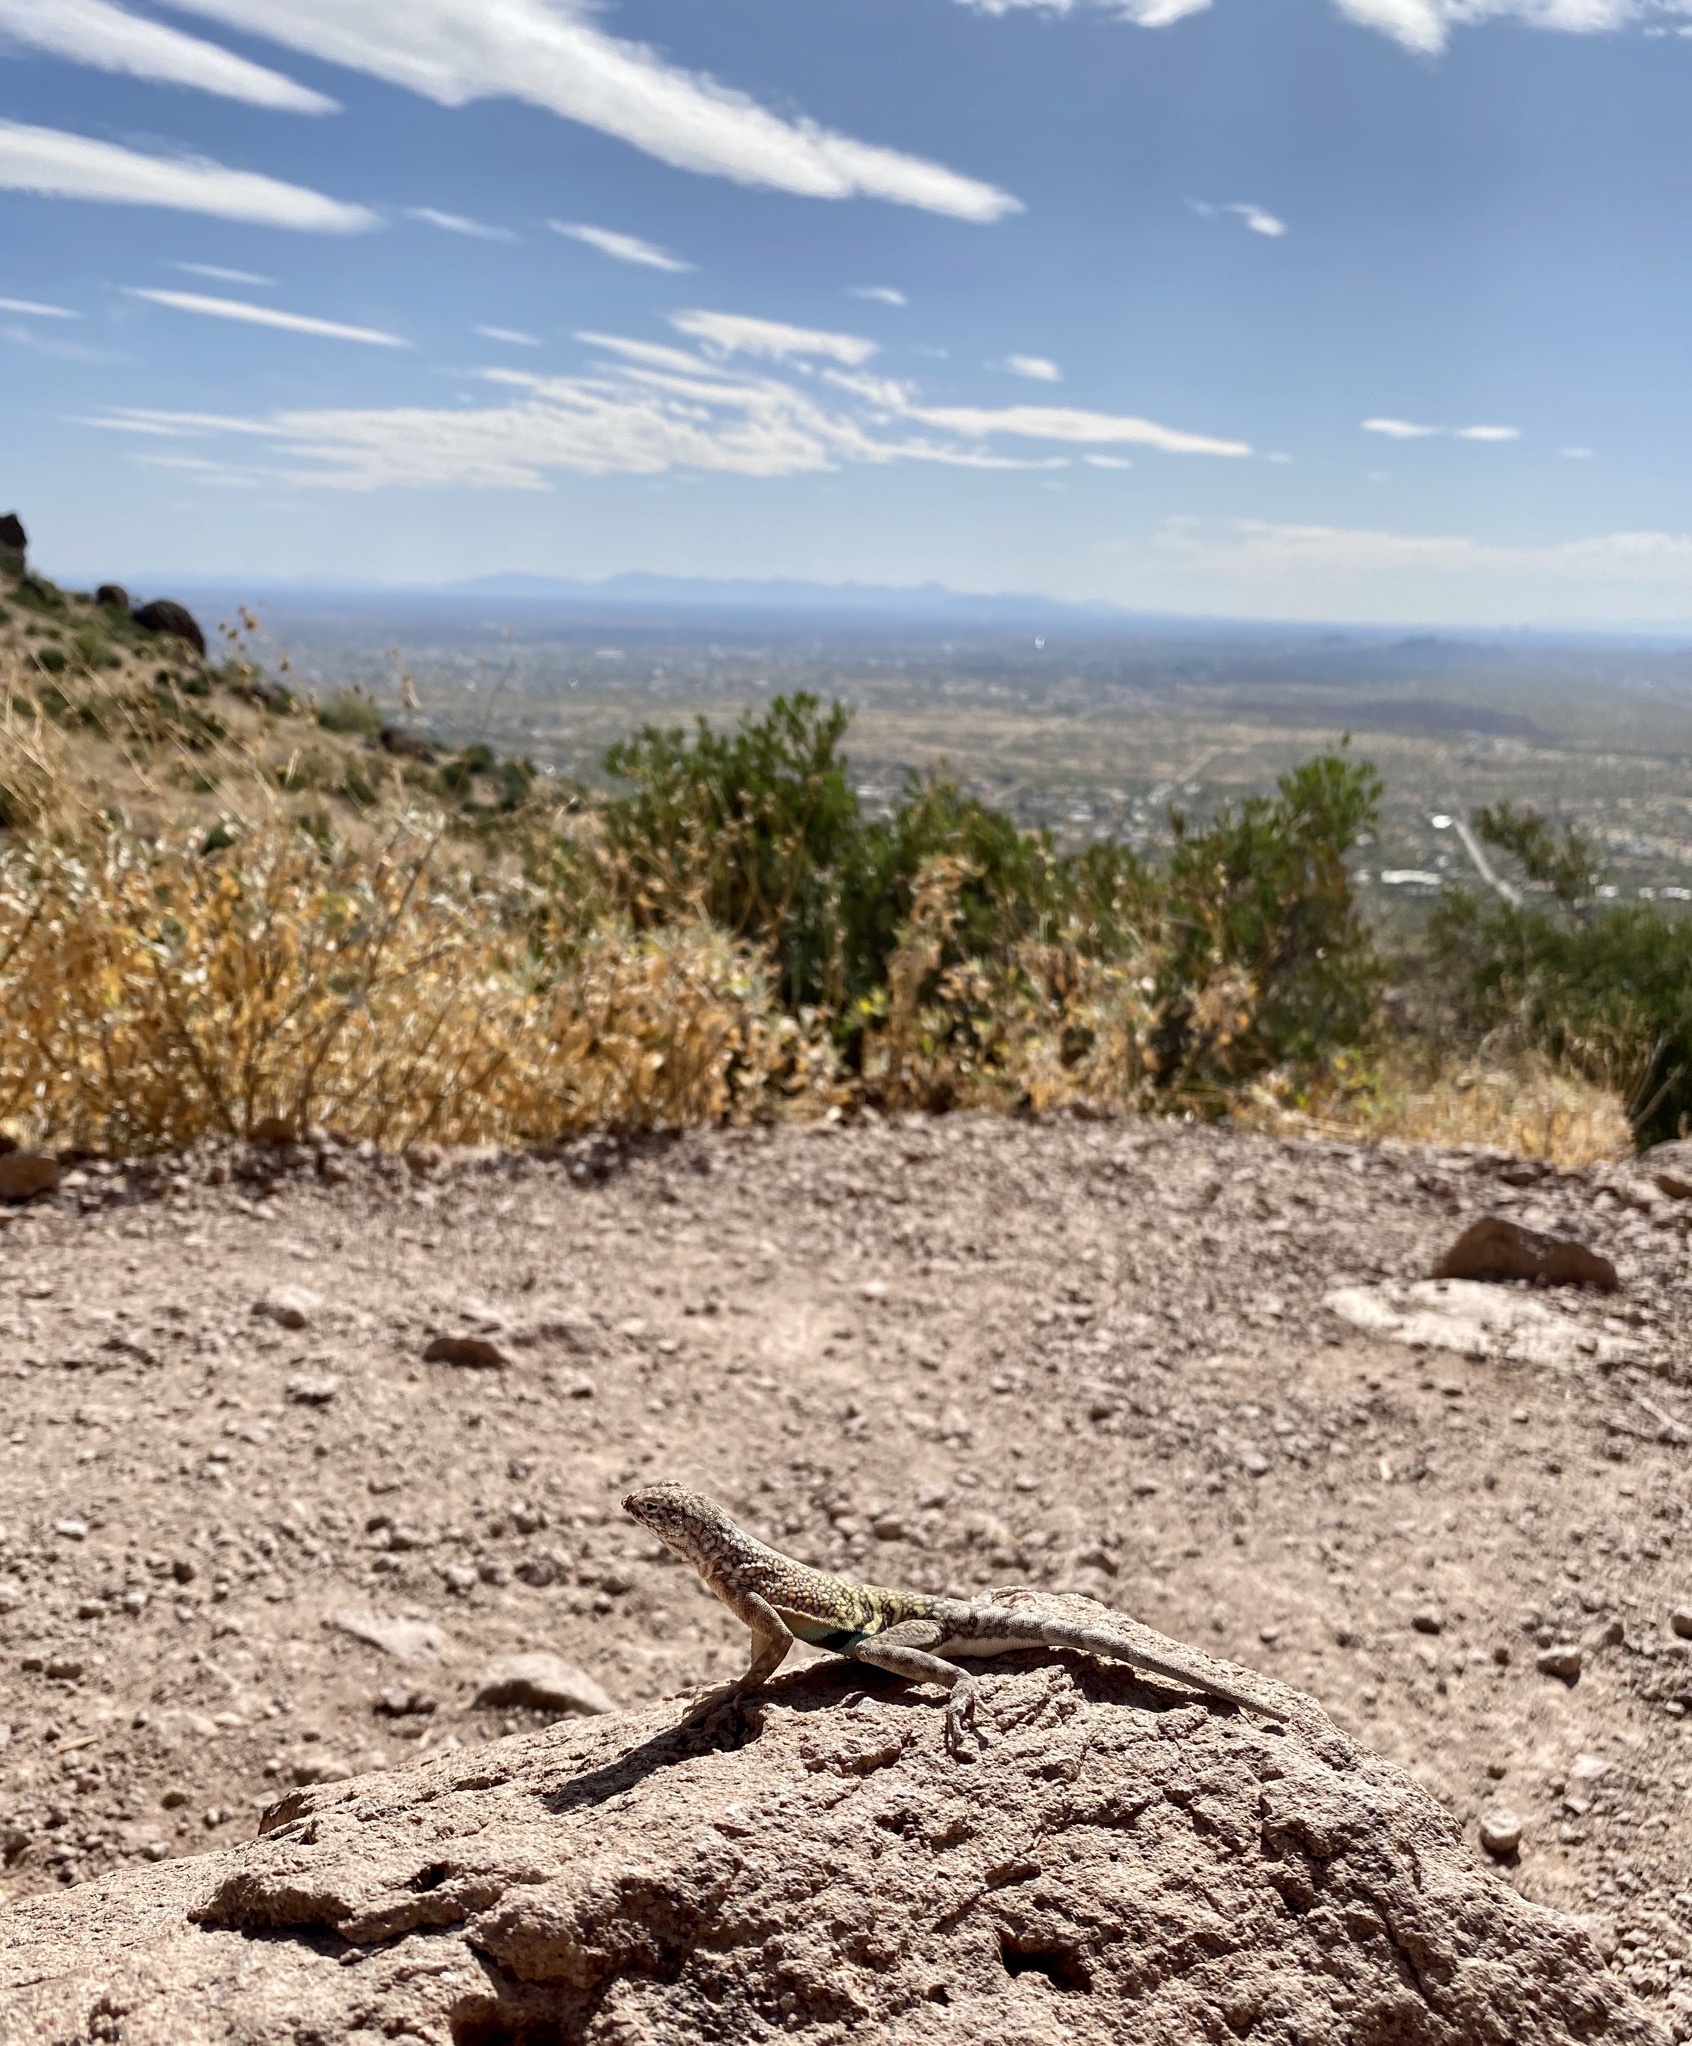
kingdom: Animalia
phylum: Chordata
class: Squamata
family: Phrynosomatidae
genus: Cophosaurus
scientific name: Cophosaurus texanus
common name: Greater earless lizard
